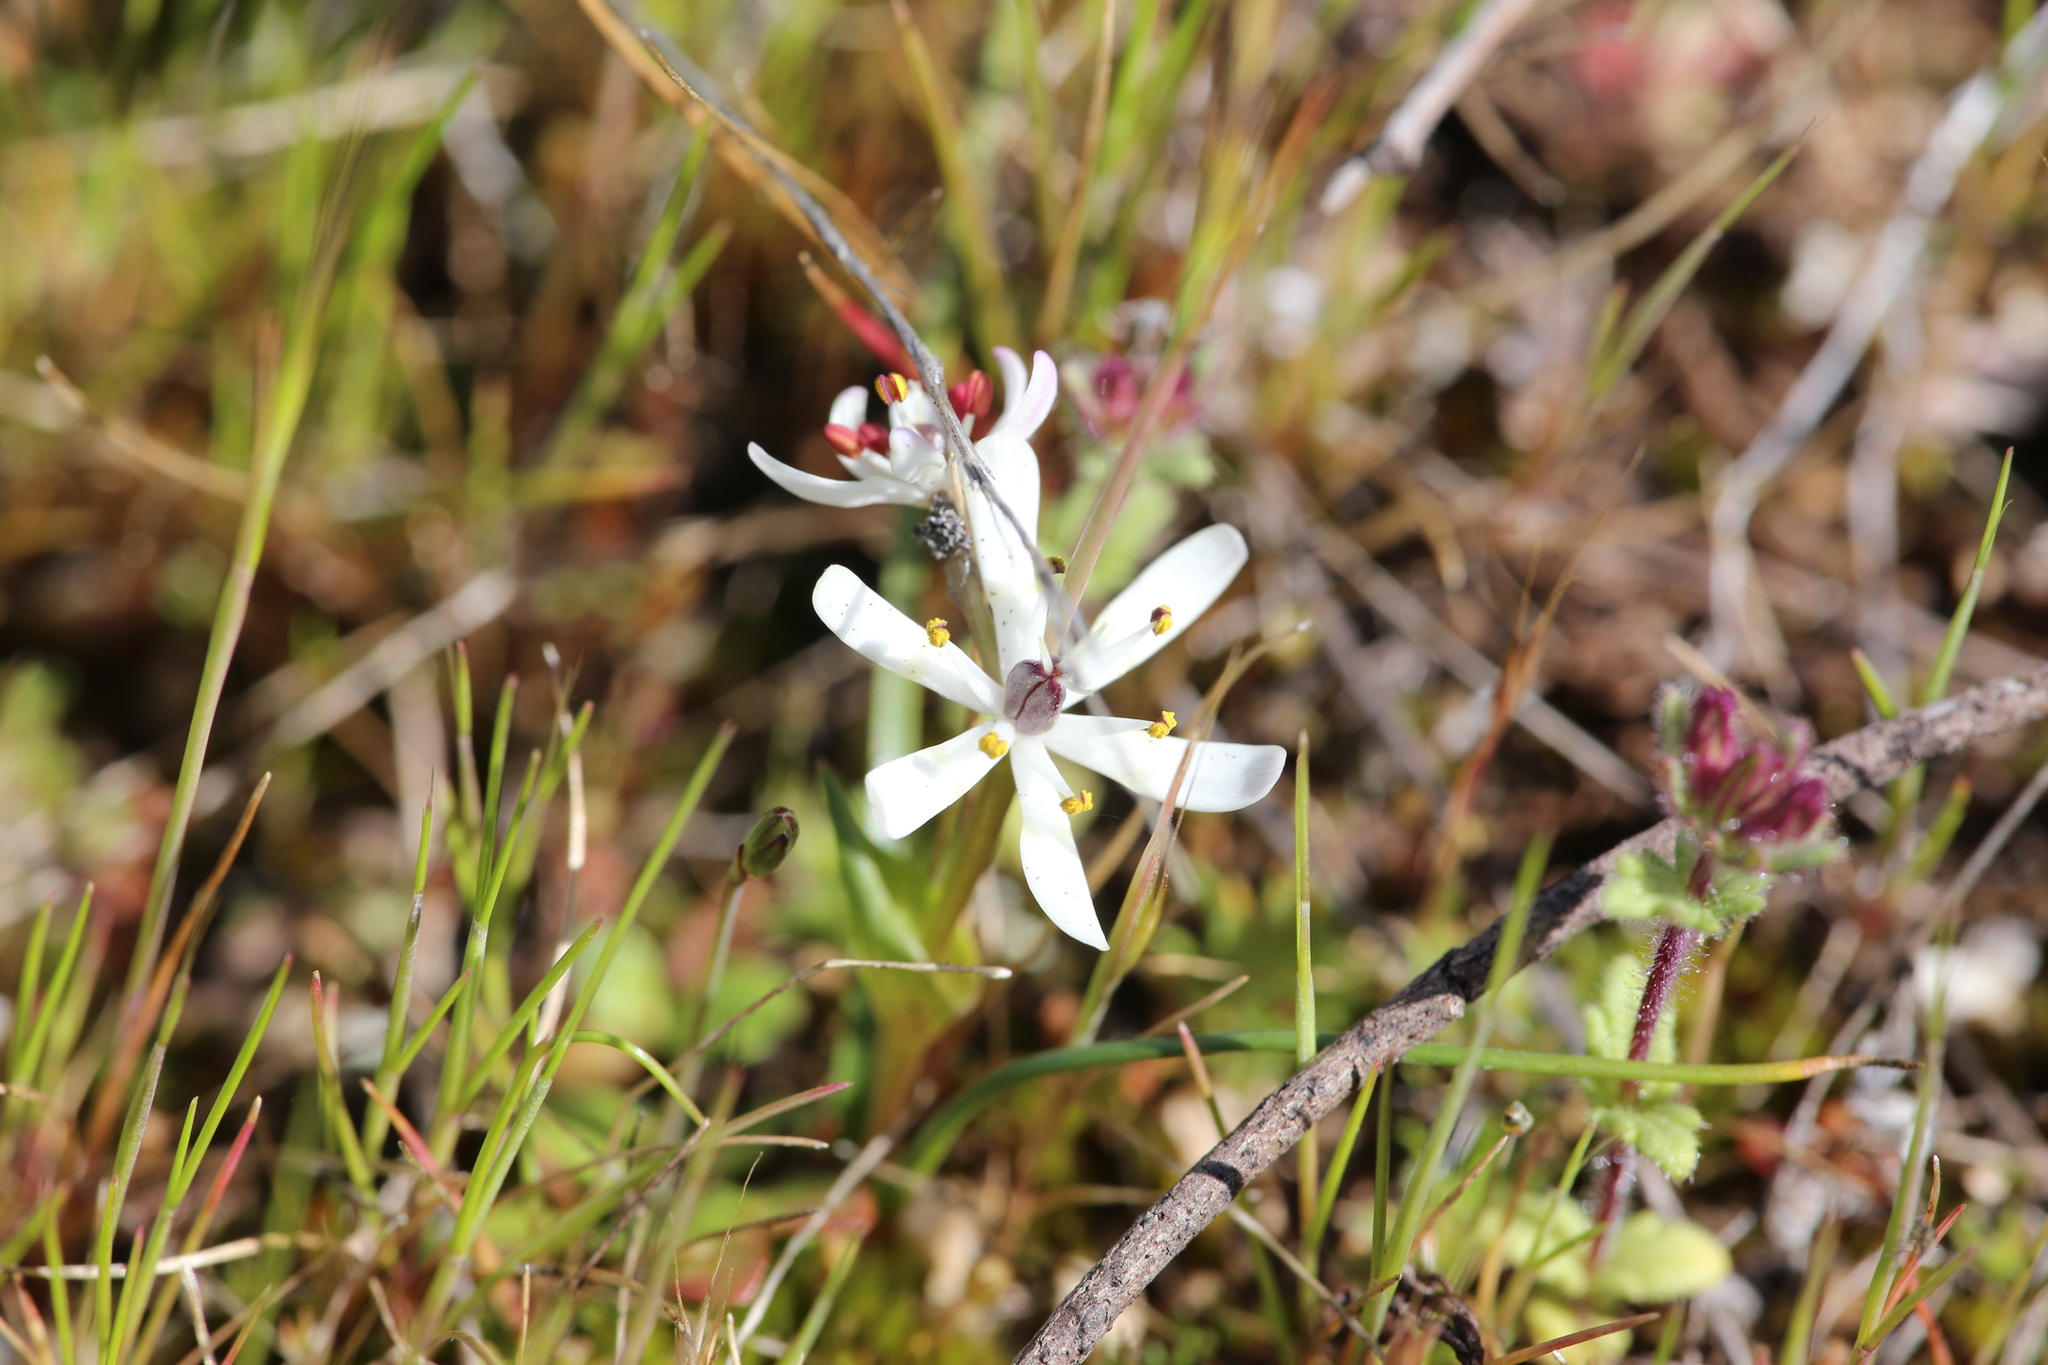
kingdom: Plantae
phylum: Tracheophyta
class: Liliopsida
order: Liliales
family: Colchicaceae
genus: Wurmbea
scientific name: Wurmbea graniticola
